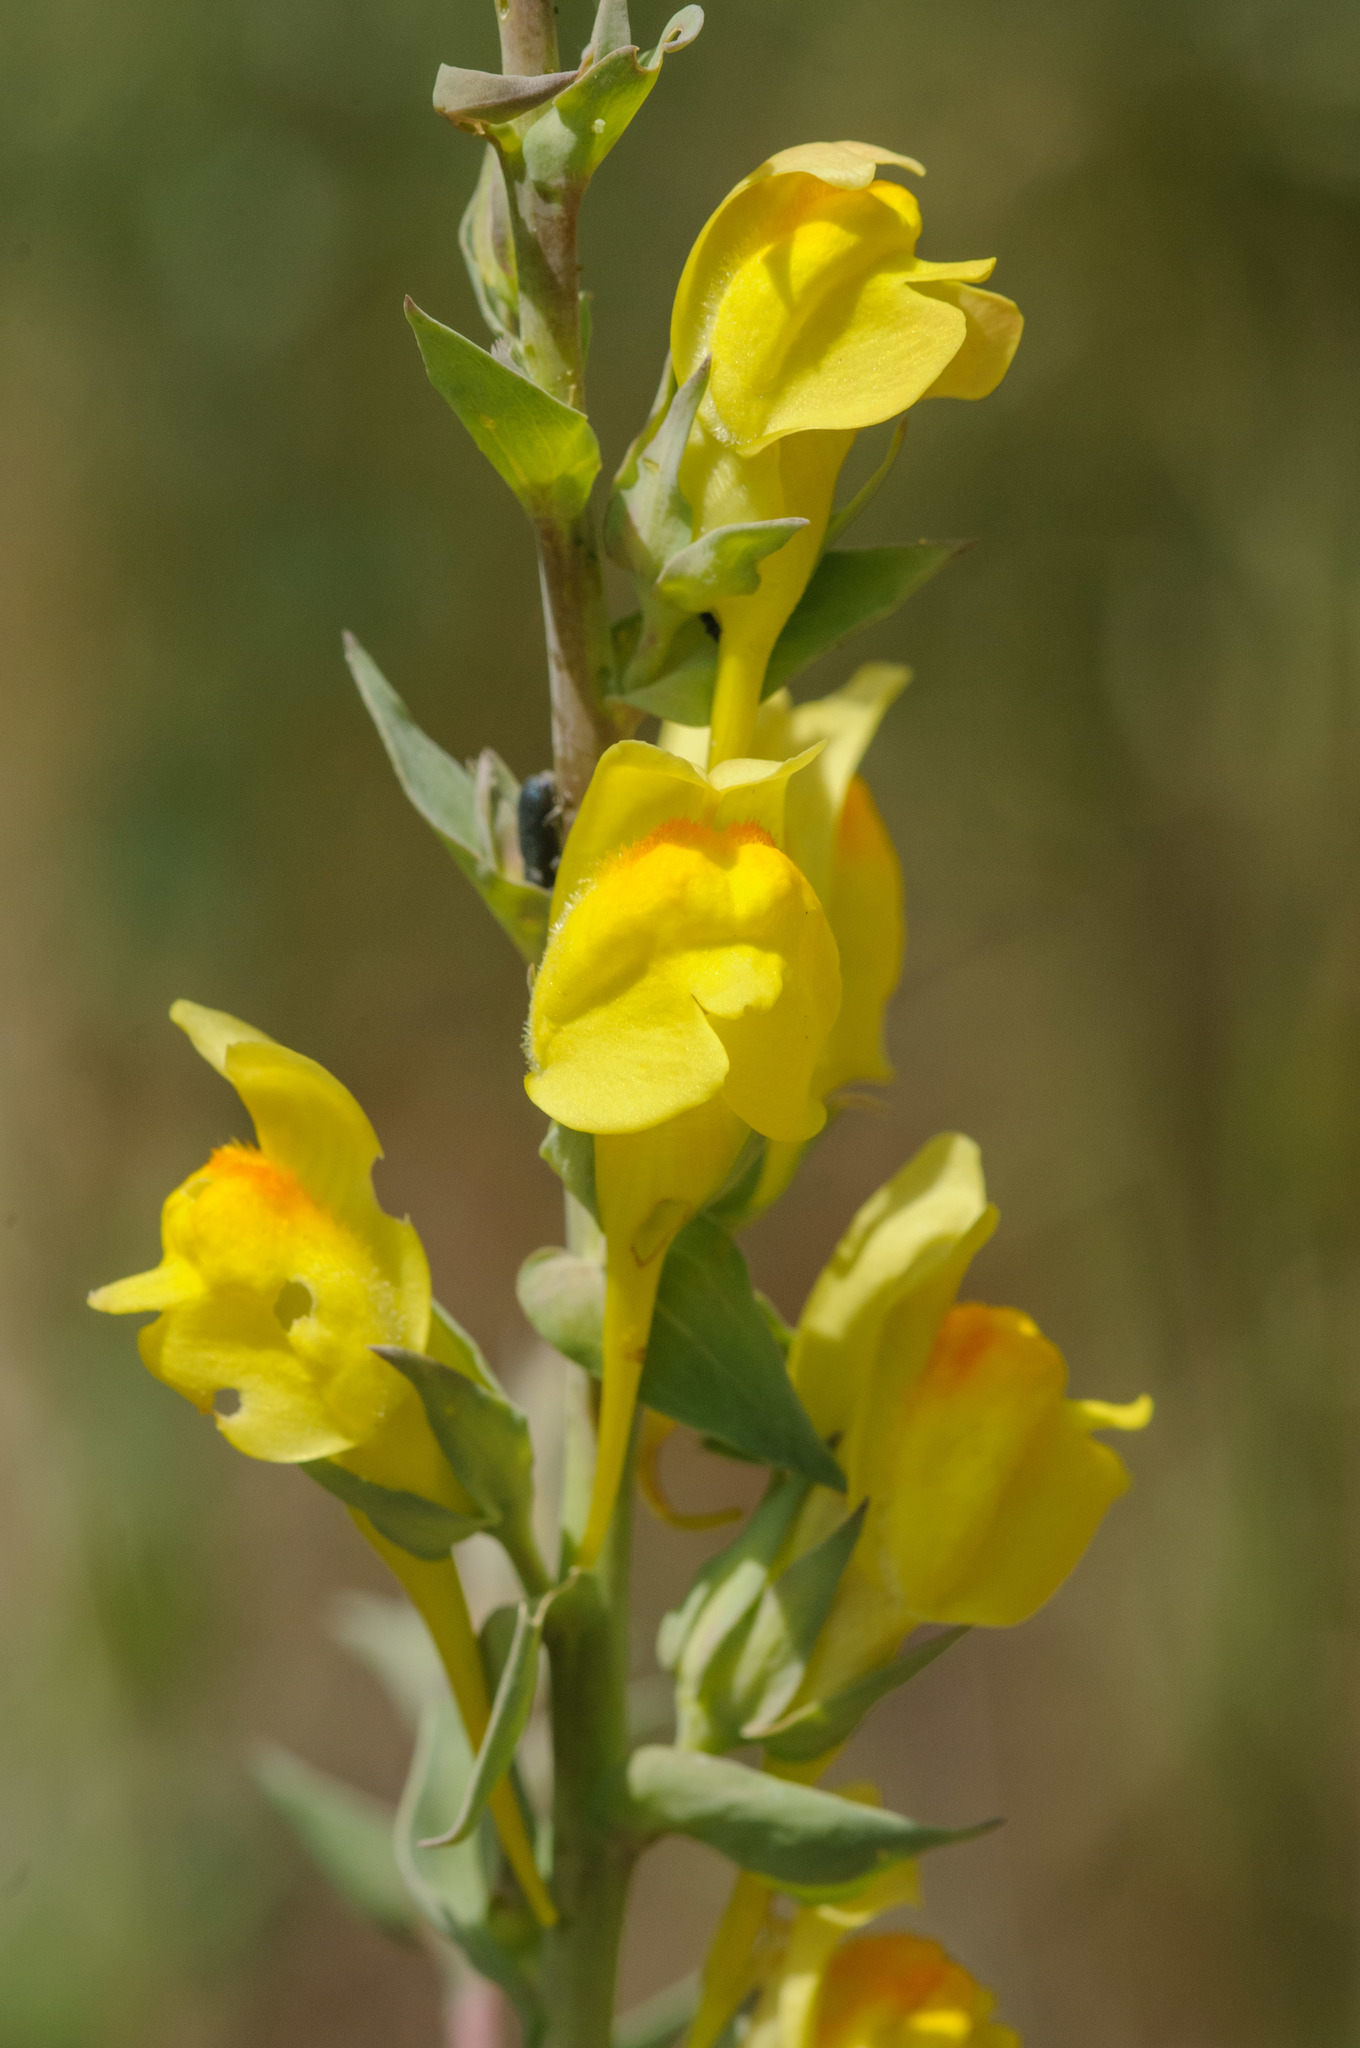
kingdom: Plantae
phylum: Tracheophyta
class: Magnoliopsida
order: Lamiales
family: Plantaginaceae
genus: Linaria
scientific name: Linaria dalmatica
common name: Dalmatian toadflax
